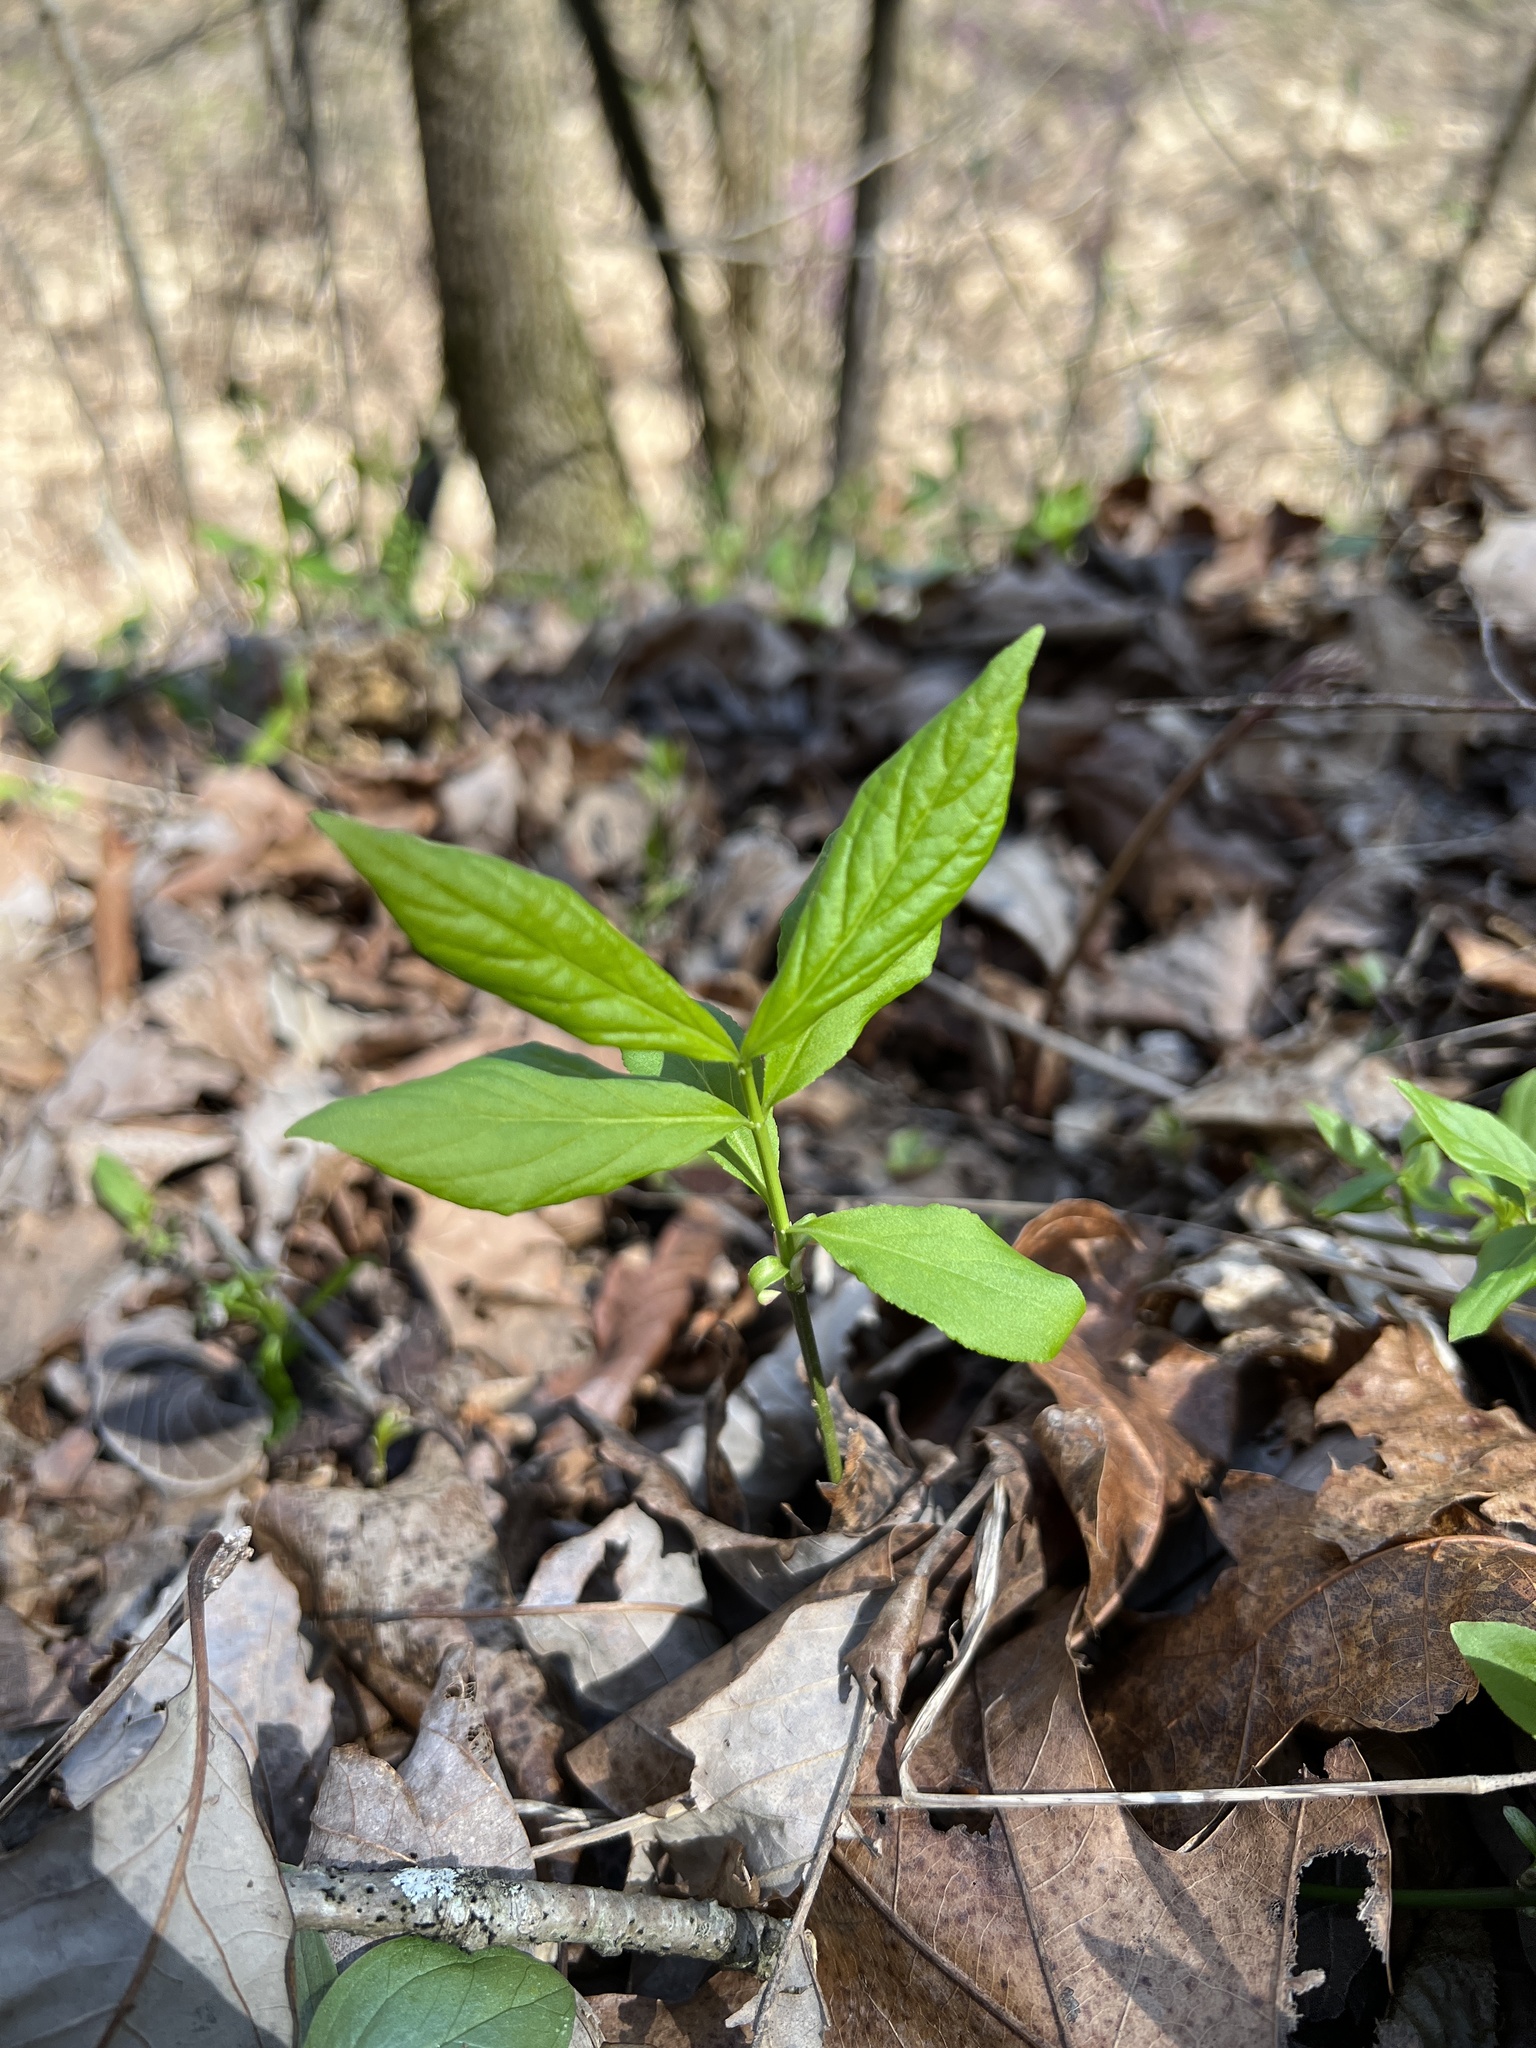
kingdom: Plantae
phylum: Tracheophyta
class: Magnoliopsida
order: Celastrales
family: Celastraceae
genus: Euonymus
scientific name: Euonymus obovatus
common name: Running strawberry-bush
